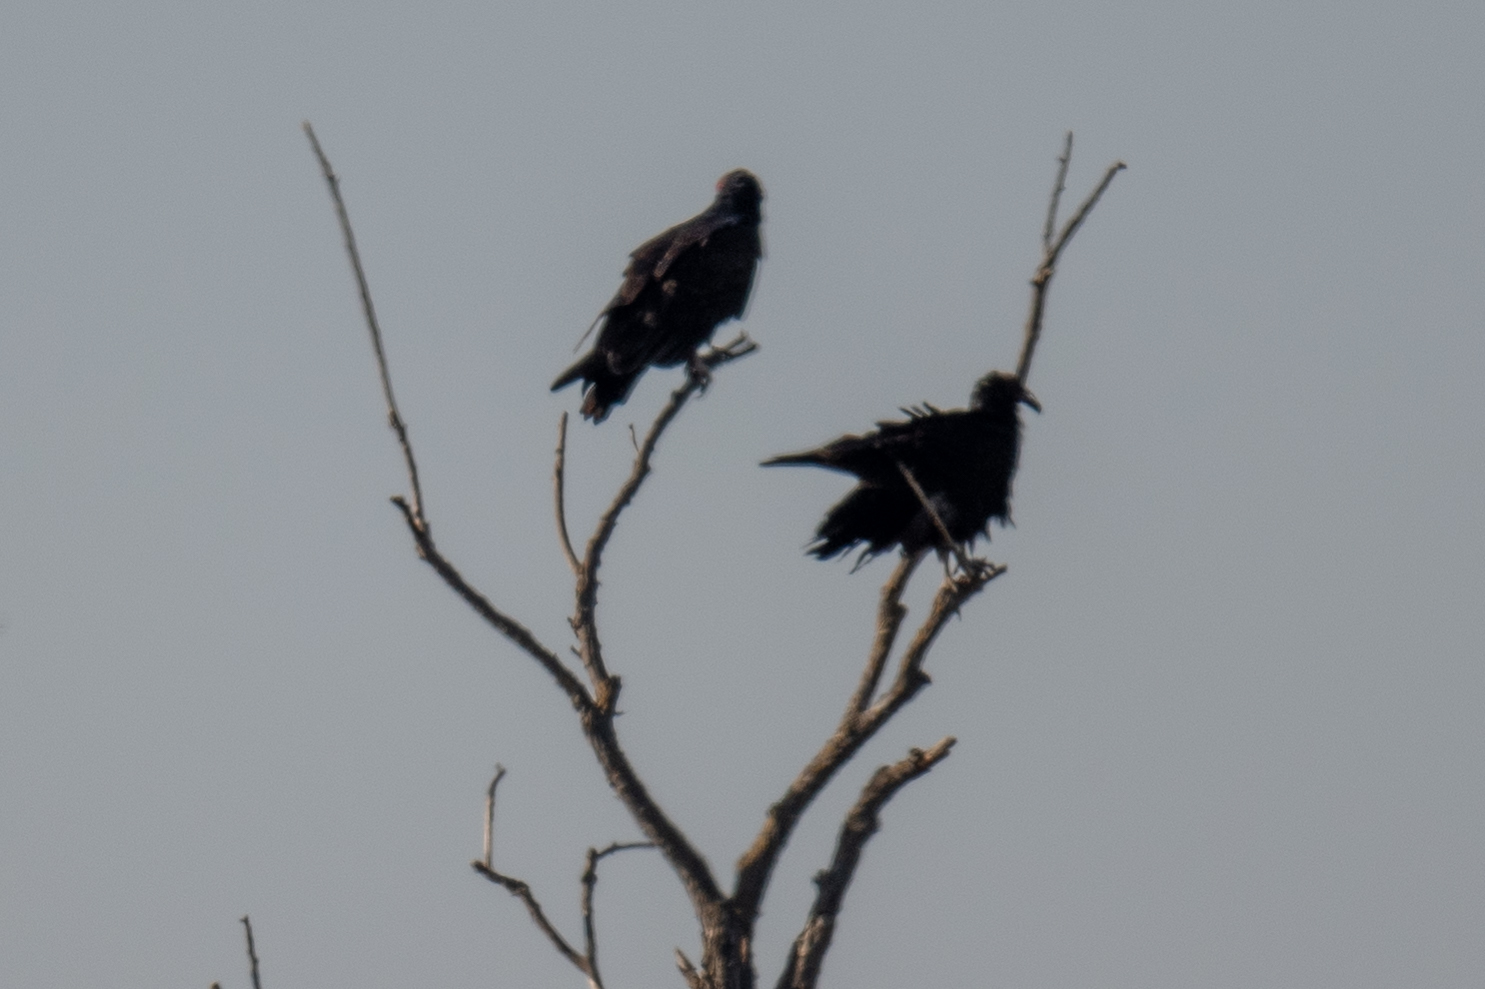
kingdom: Animalia
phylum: Chordata
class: Aves
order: Accipitriformes
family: Cathartidae
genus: Cathartes
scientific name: Cathartes aura
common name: Turkey vulture
